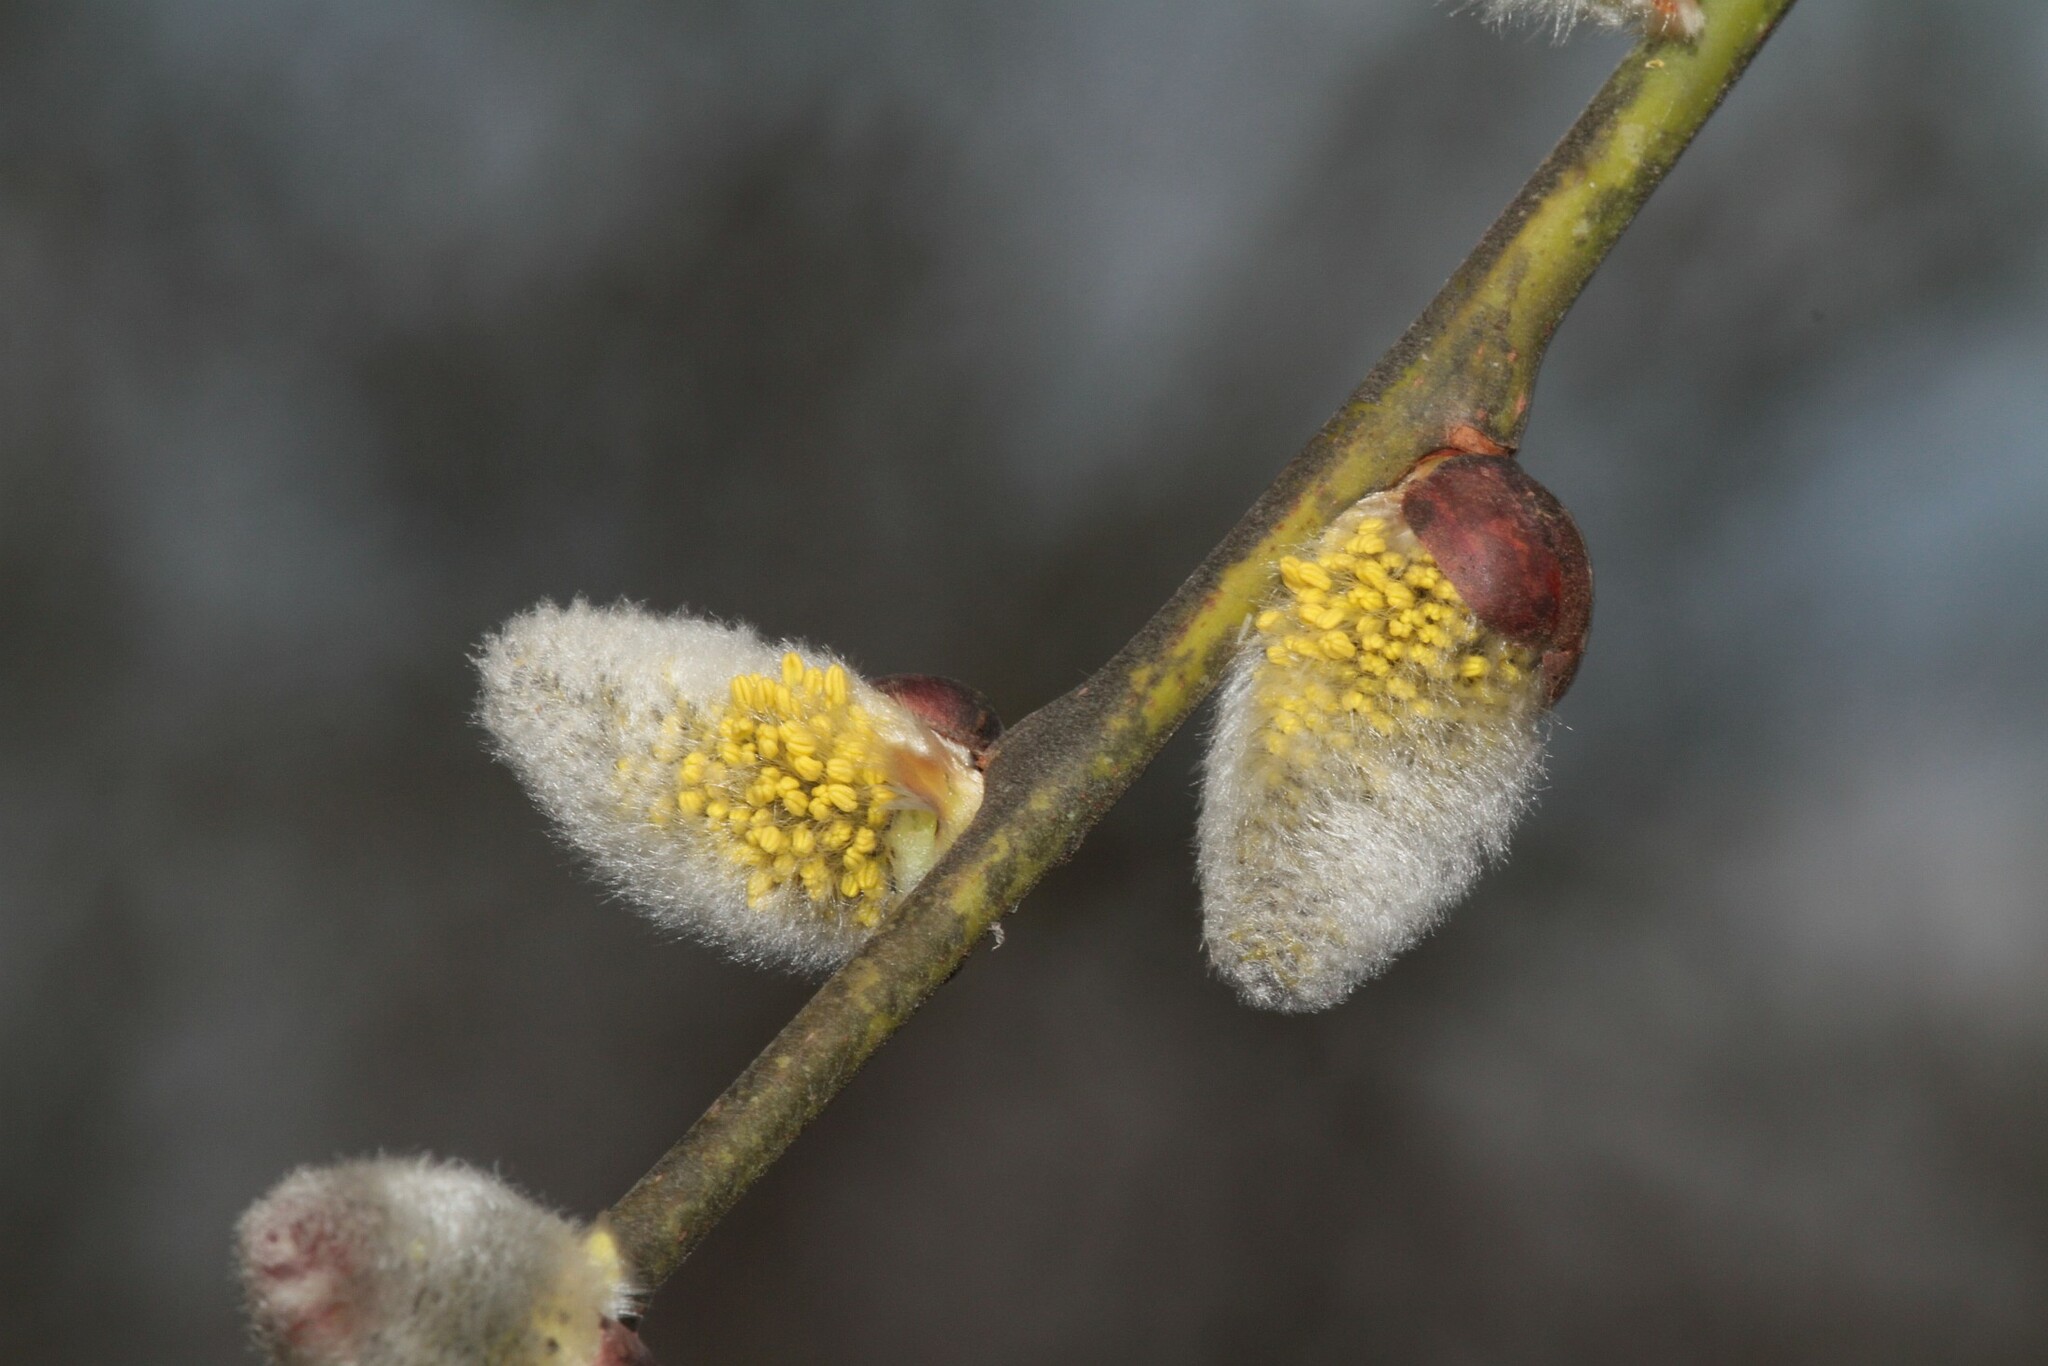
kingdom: Plantae
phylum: Tracheophyta
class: Magnoliopsida
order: Malpighiales
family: Salicaceae
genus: Salix
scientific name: Salix caprea
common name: Goat willow
